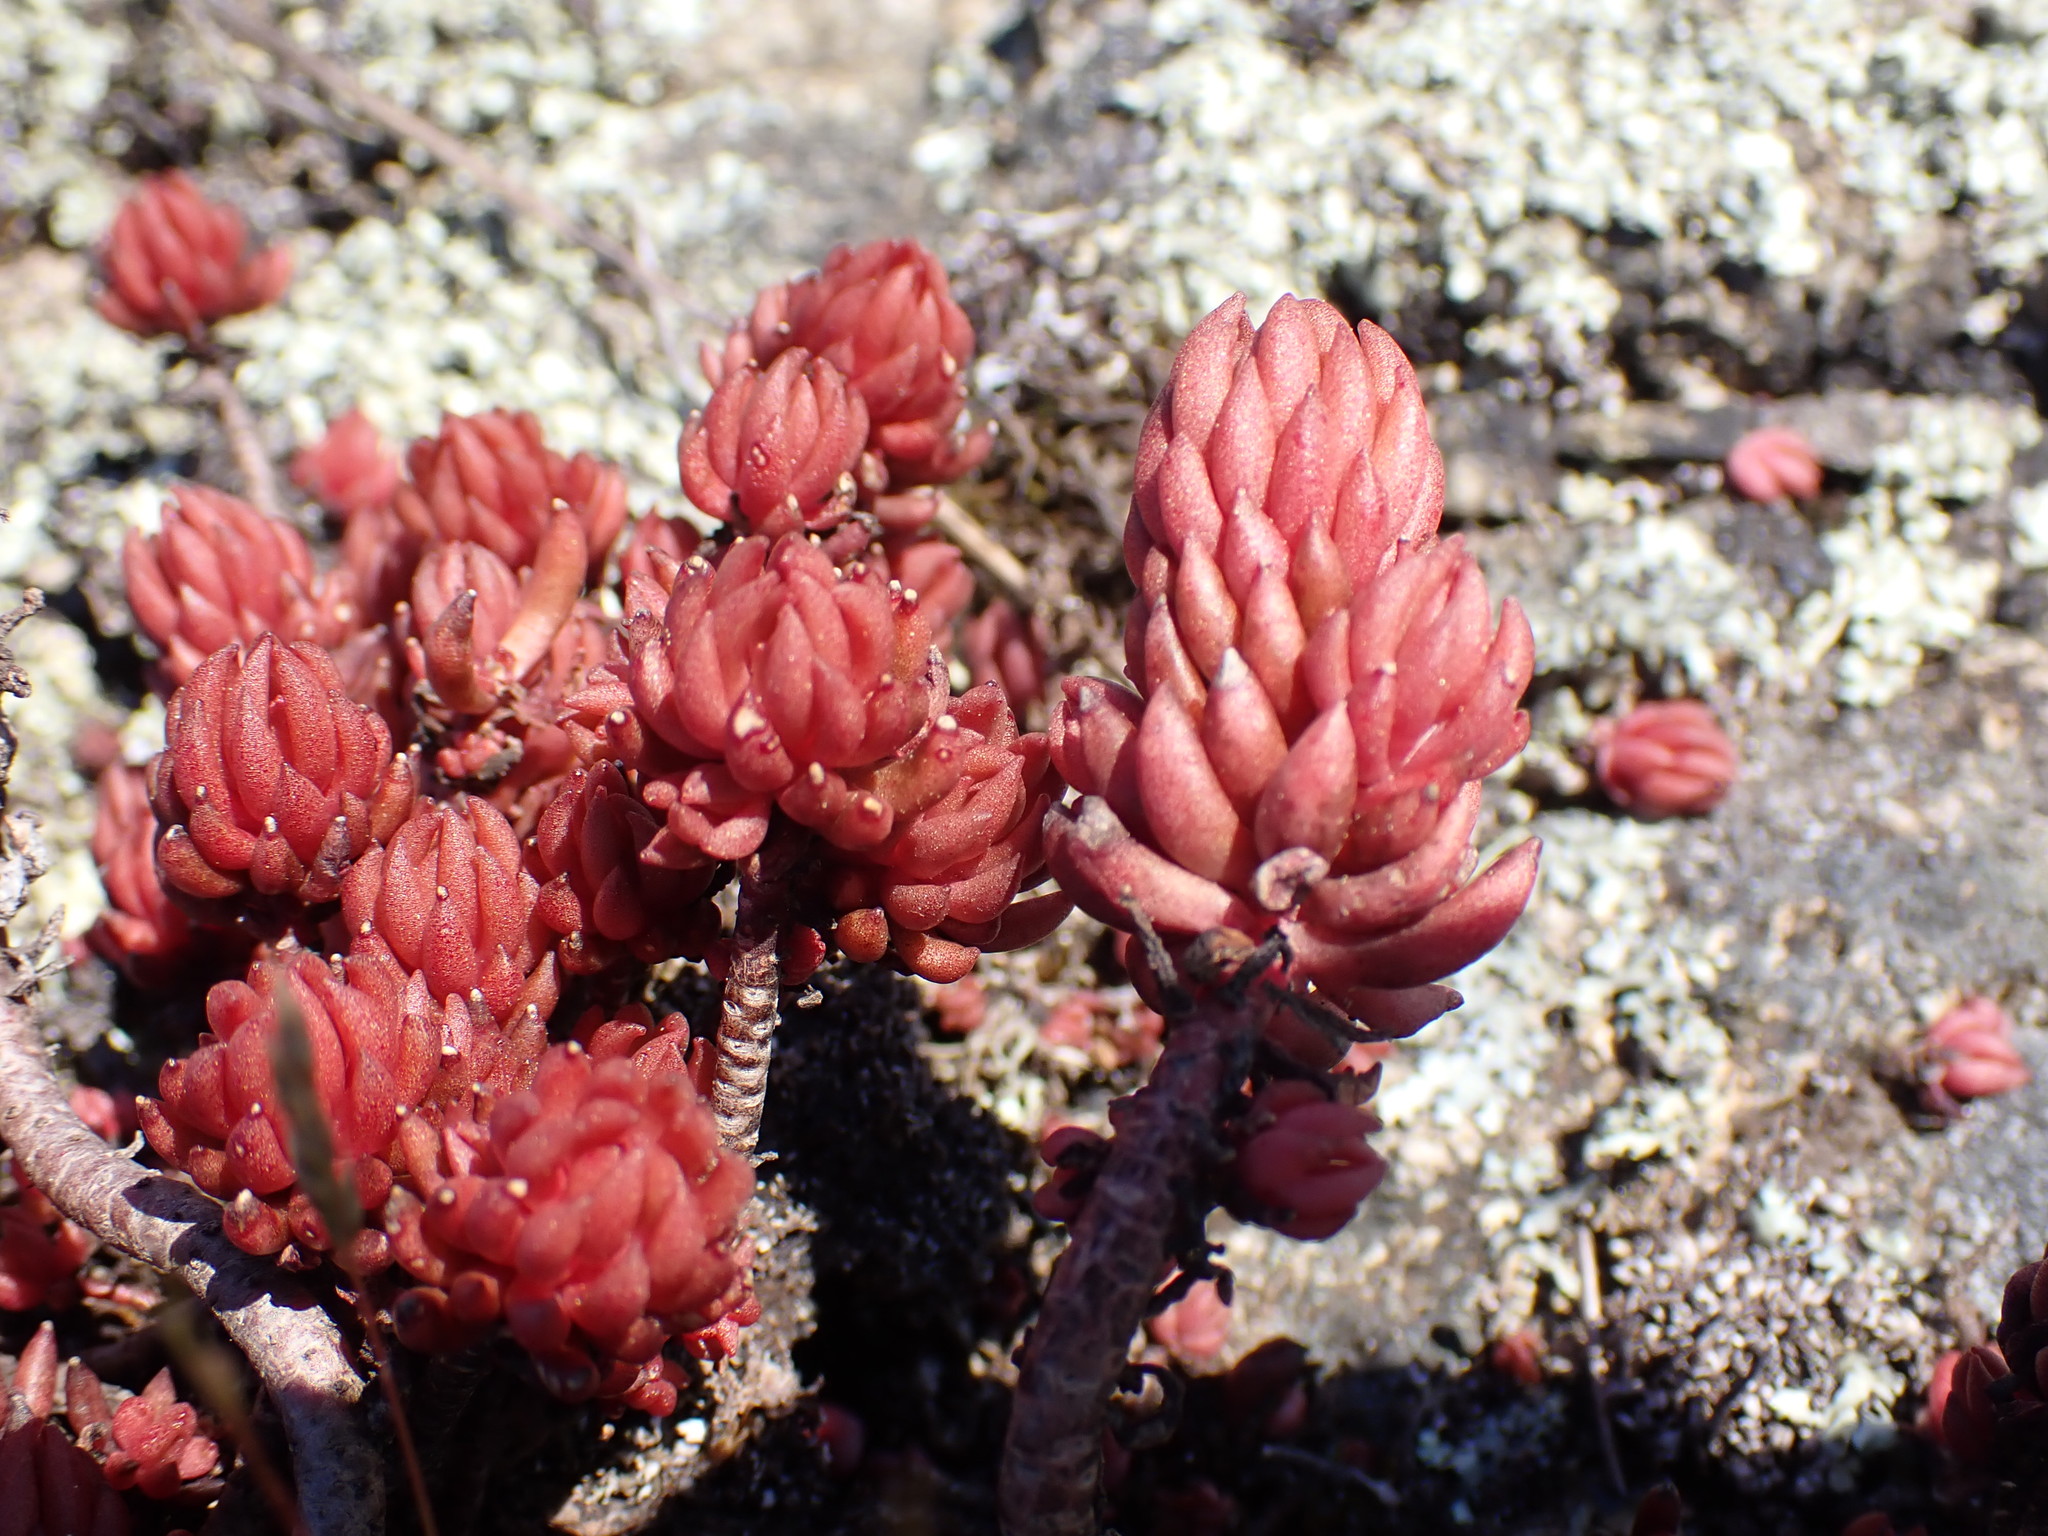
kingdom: Plantae
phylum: Tracheophyta
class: Magnoliopsida
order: Saxifragales
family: Crassulaceae
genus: Sedum
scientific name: Sedum lanceolatum
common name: Common stonecrop
